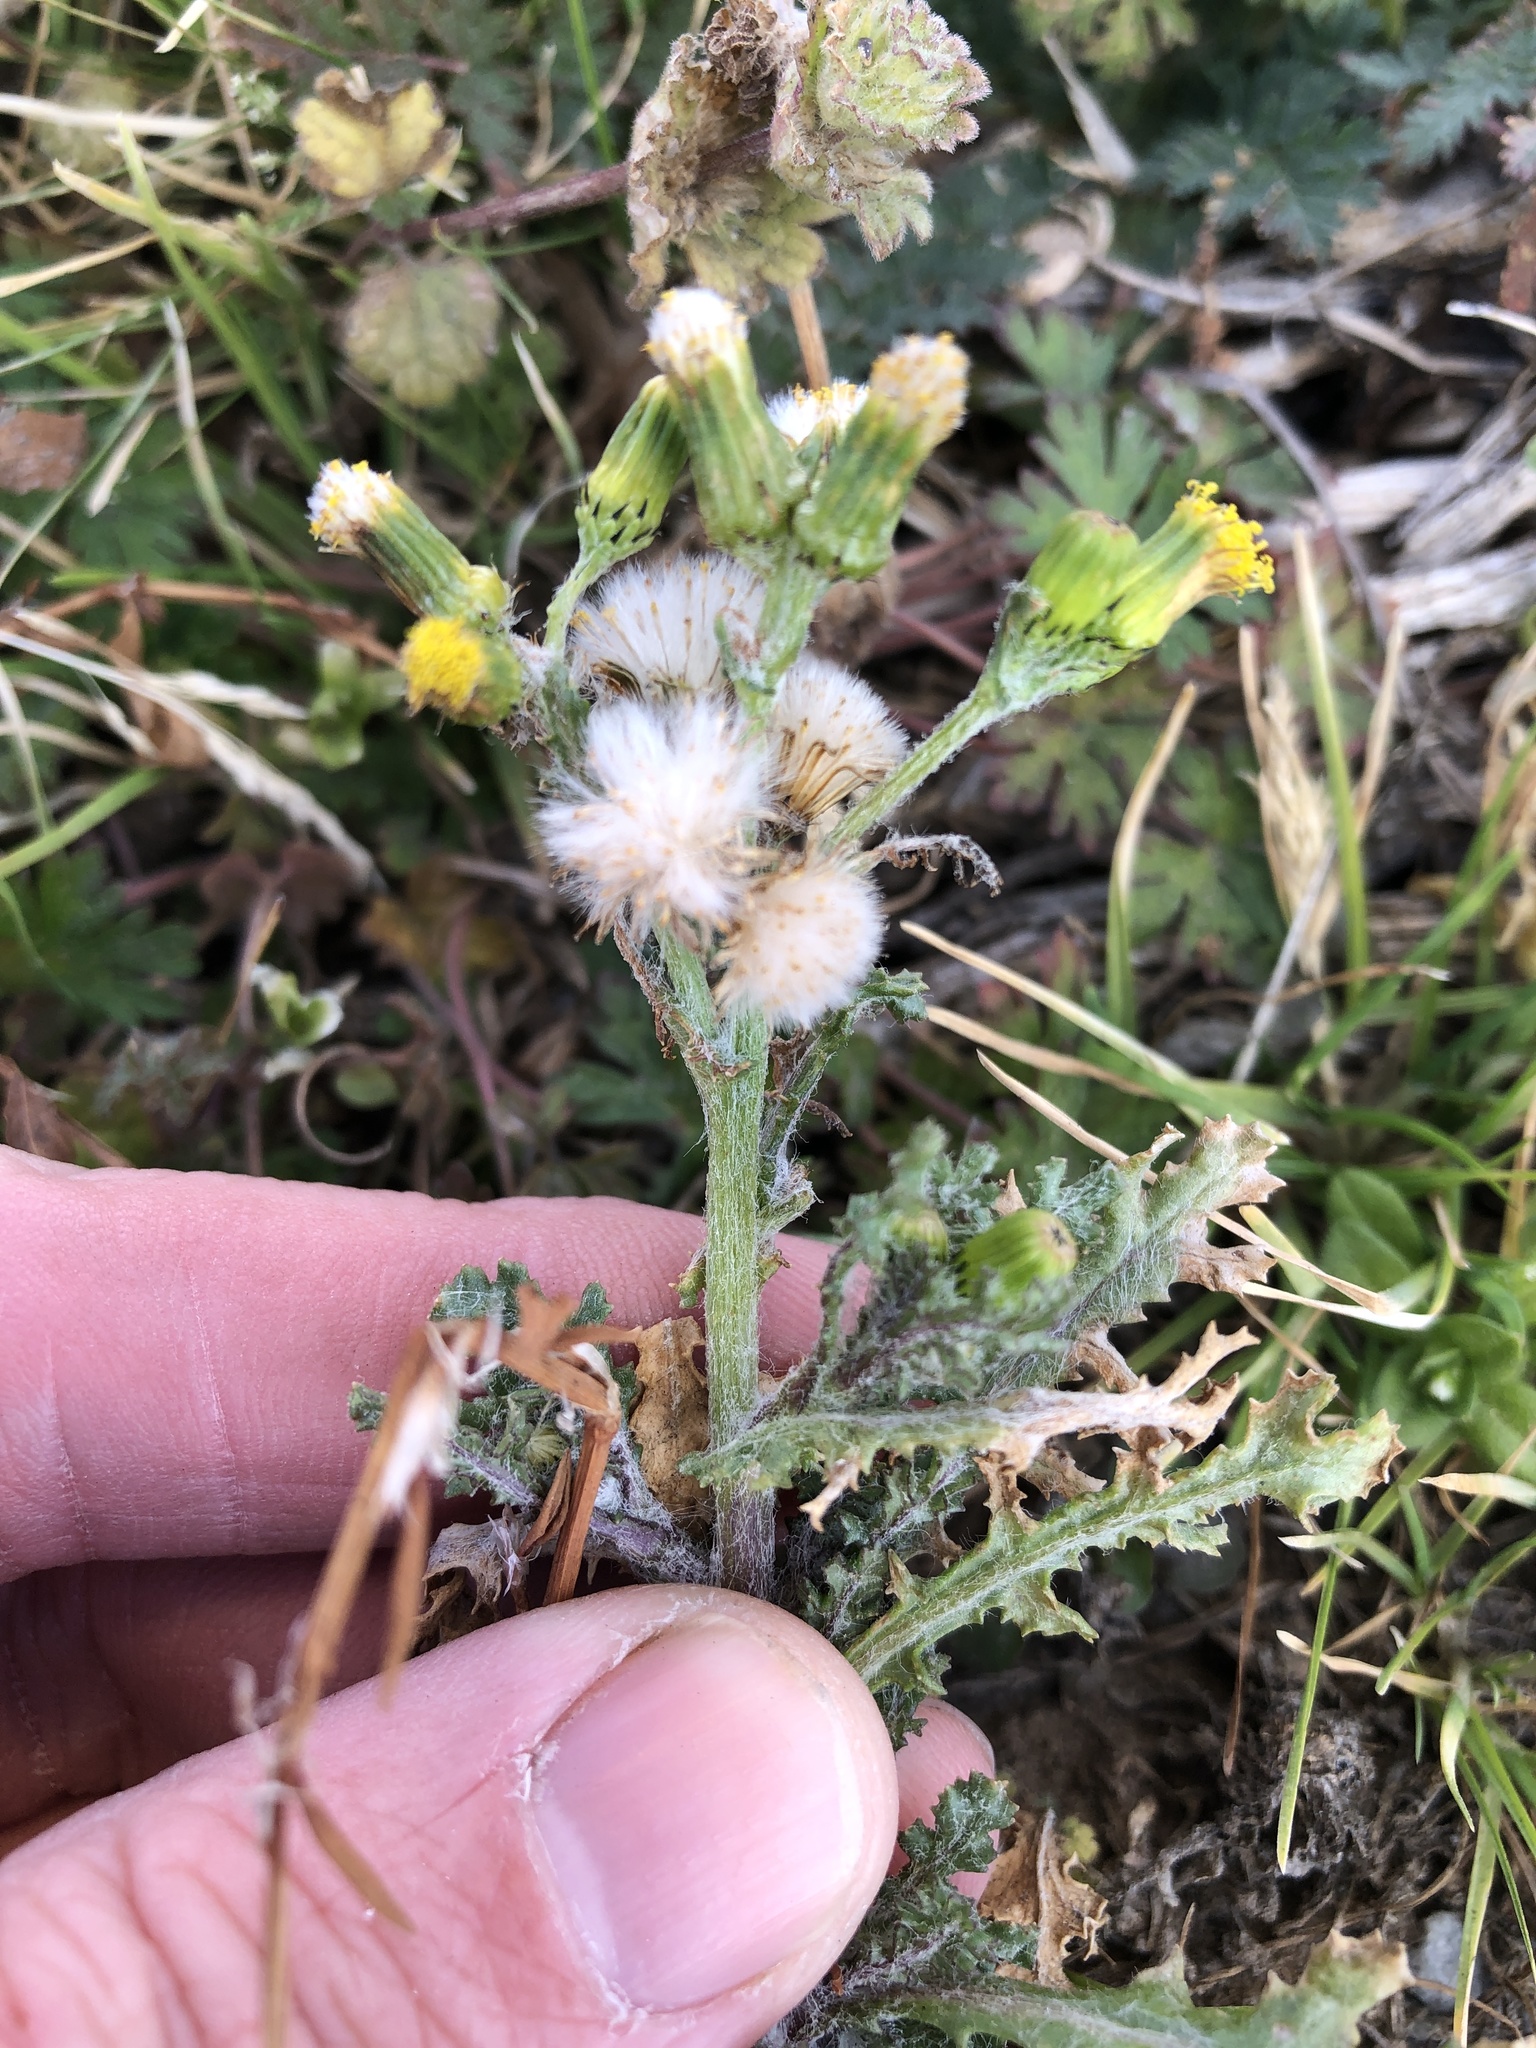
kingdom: Plantae
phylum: Tracheophyta
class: Magnoliopsida
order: Asterales
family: Asteraceae
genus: Senecio
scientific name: Senecio vulgaris
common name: Old-man-in-the-spring
